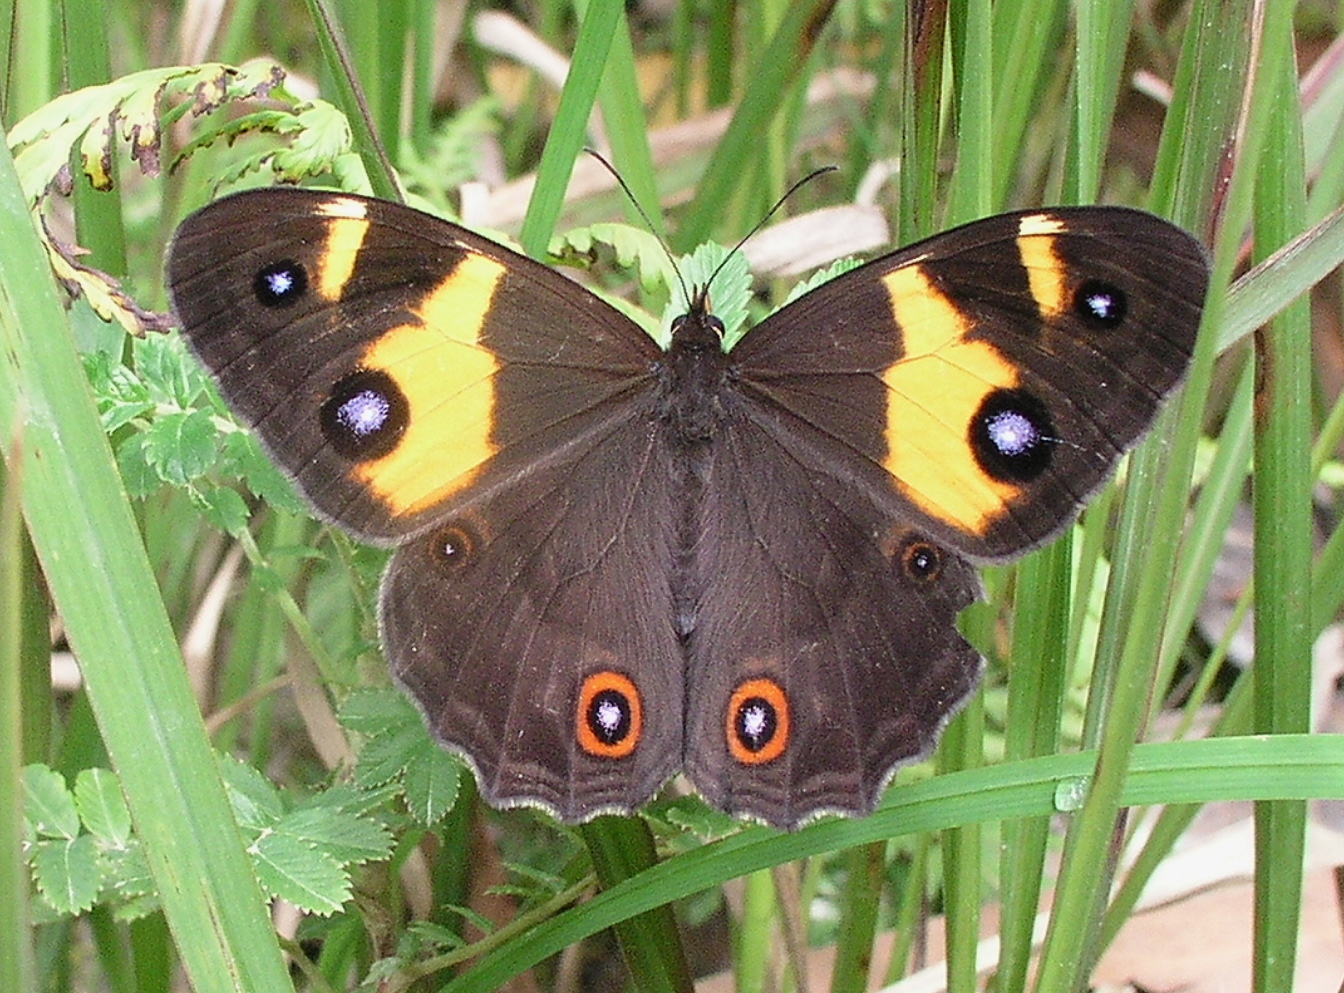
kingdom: Animalia
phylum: Arthropoda
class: Insecta
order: Lepidoptera
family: Nymphalidae
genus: Tisiphone
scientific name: Tisiphone abeona
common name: Swordgrass brown
